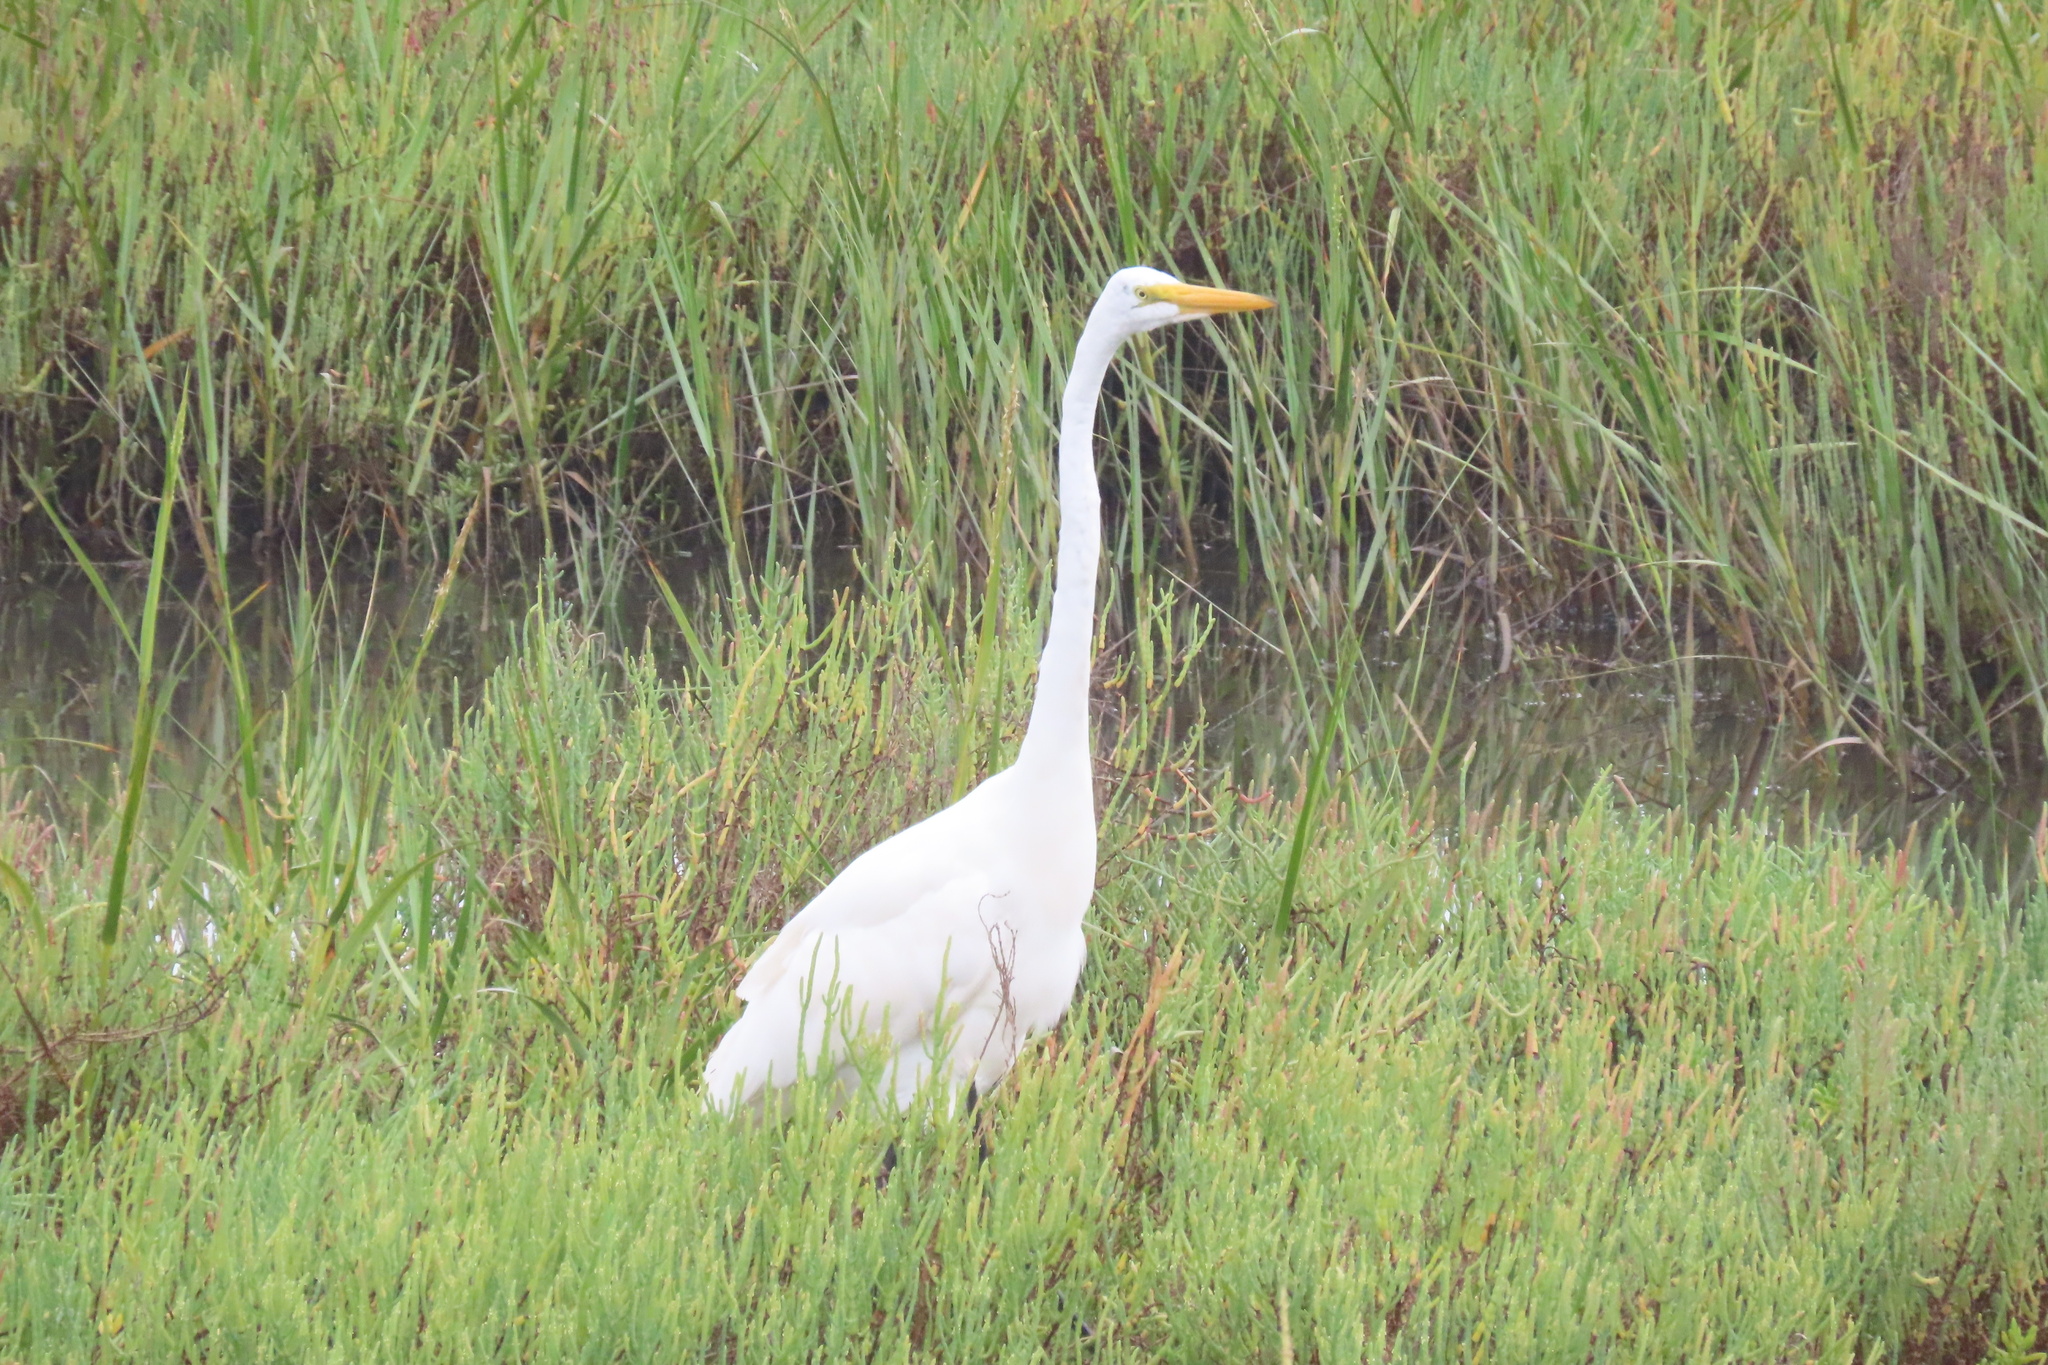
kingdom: Animalia
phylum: Chordata
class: Aves
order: Pelecaniformes
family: Ardeidae
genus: Ardea
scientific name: Ardea alba
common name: Great egret
